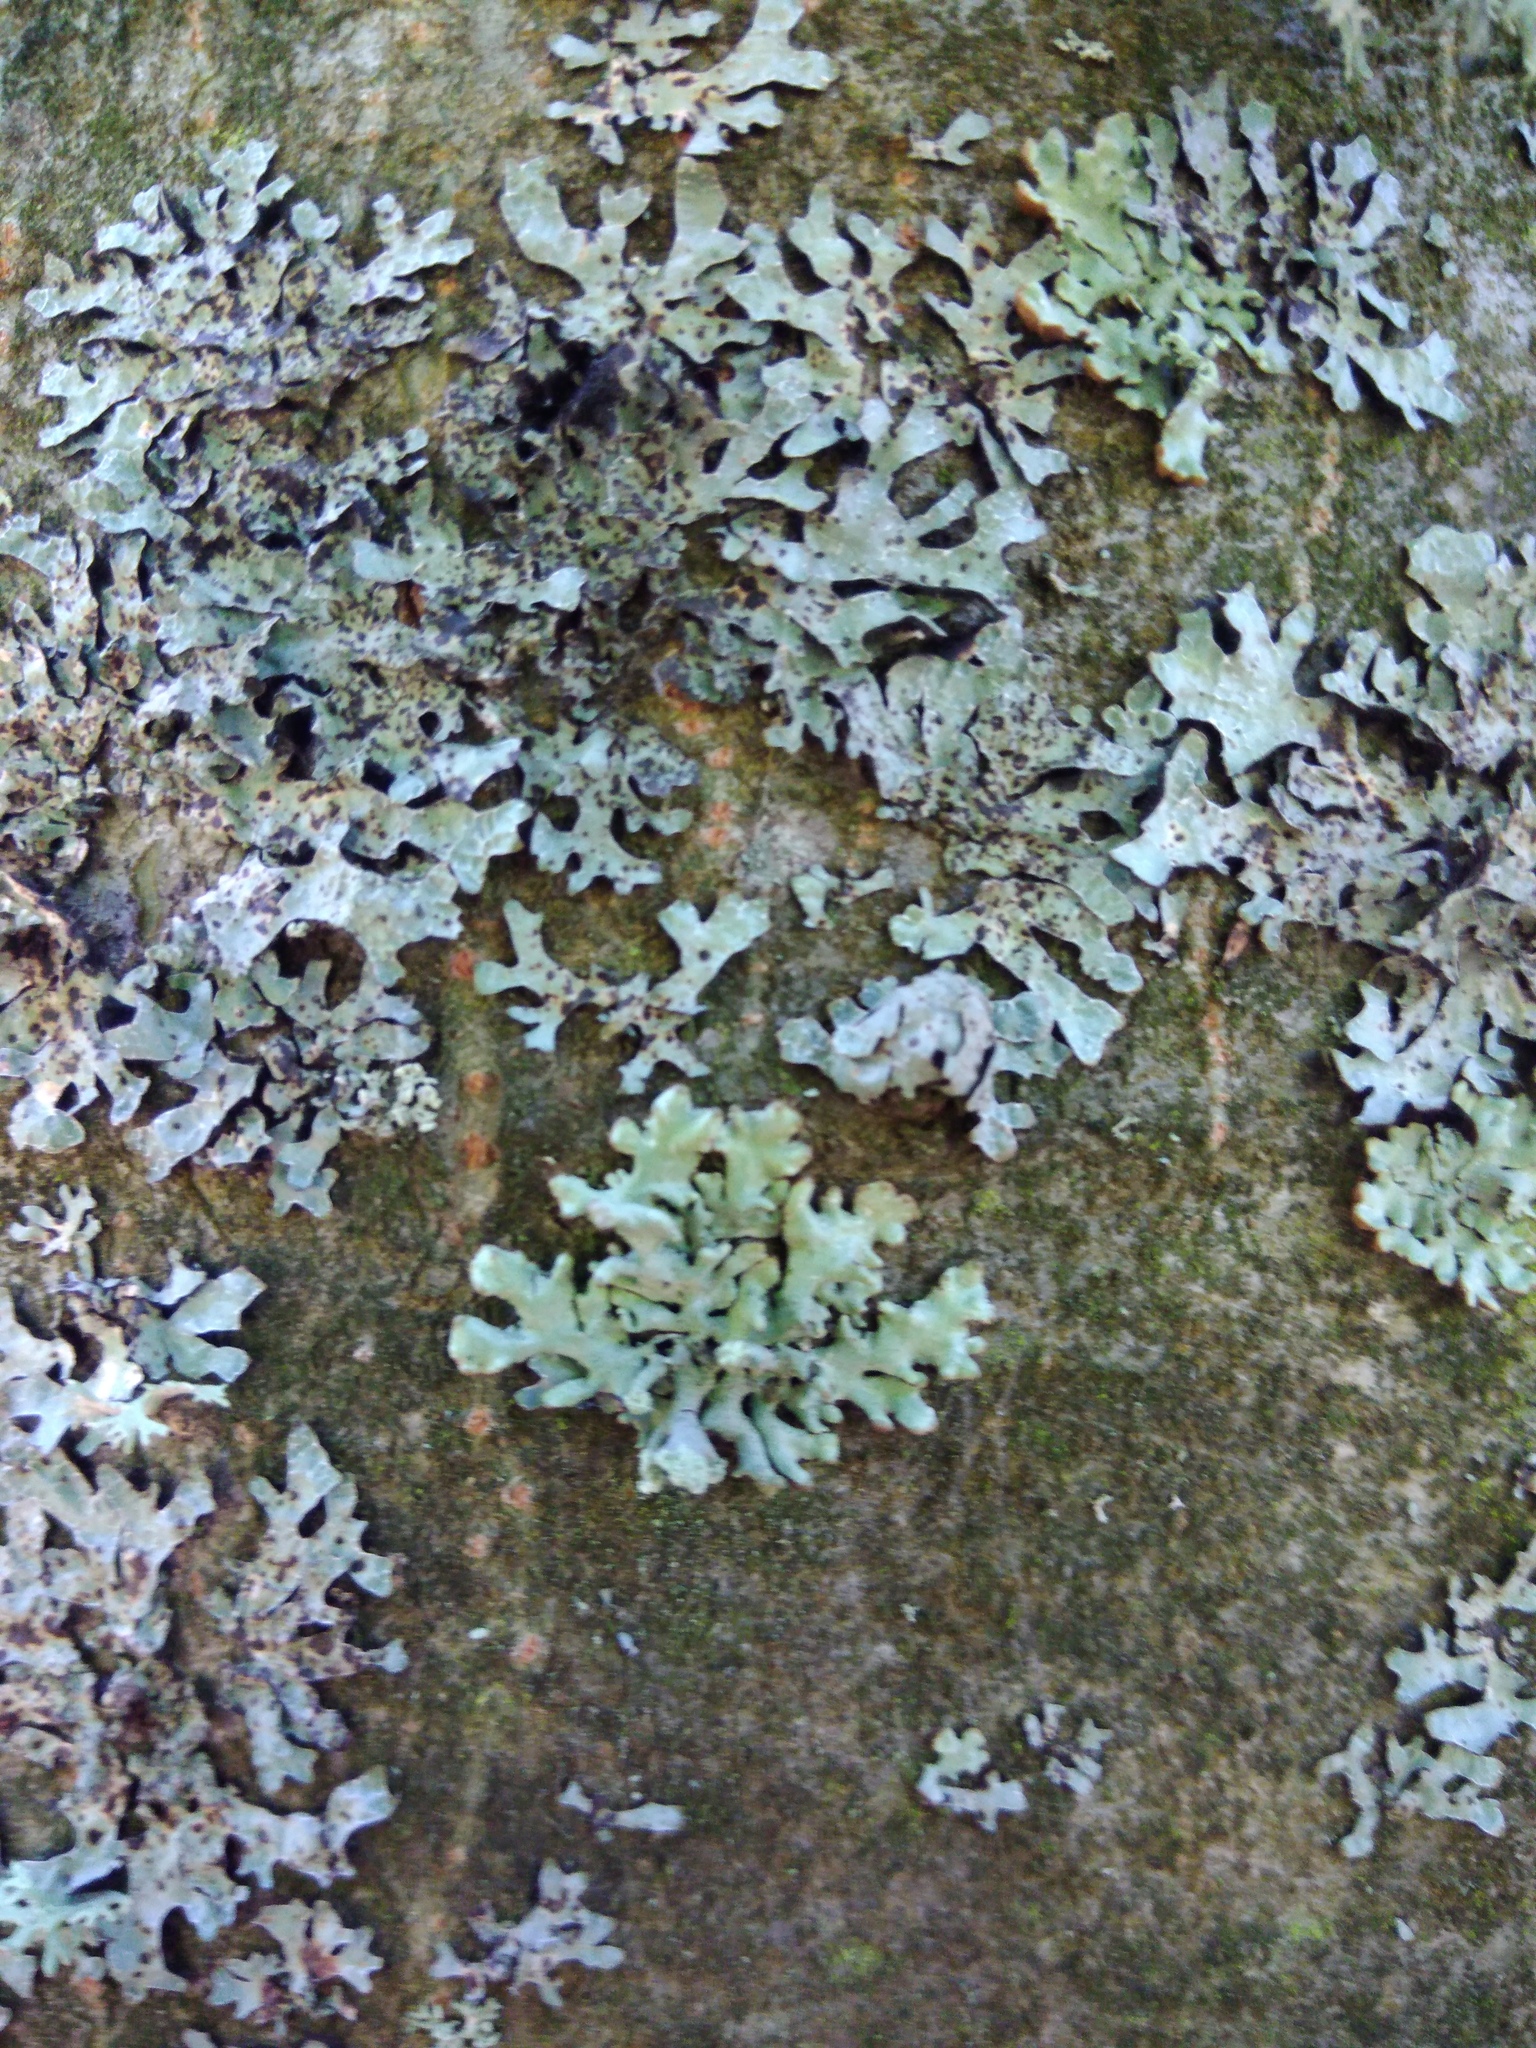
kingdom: Fungi
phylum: Ascomycota
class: Lecanoromycetes
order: Lecanorales
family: Parmeliaceae
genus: Hypogymnia
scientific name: Hypogymnia physodes
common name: Dark crottle
